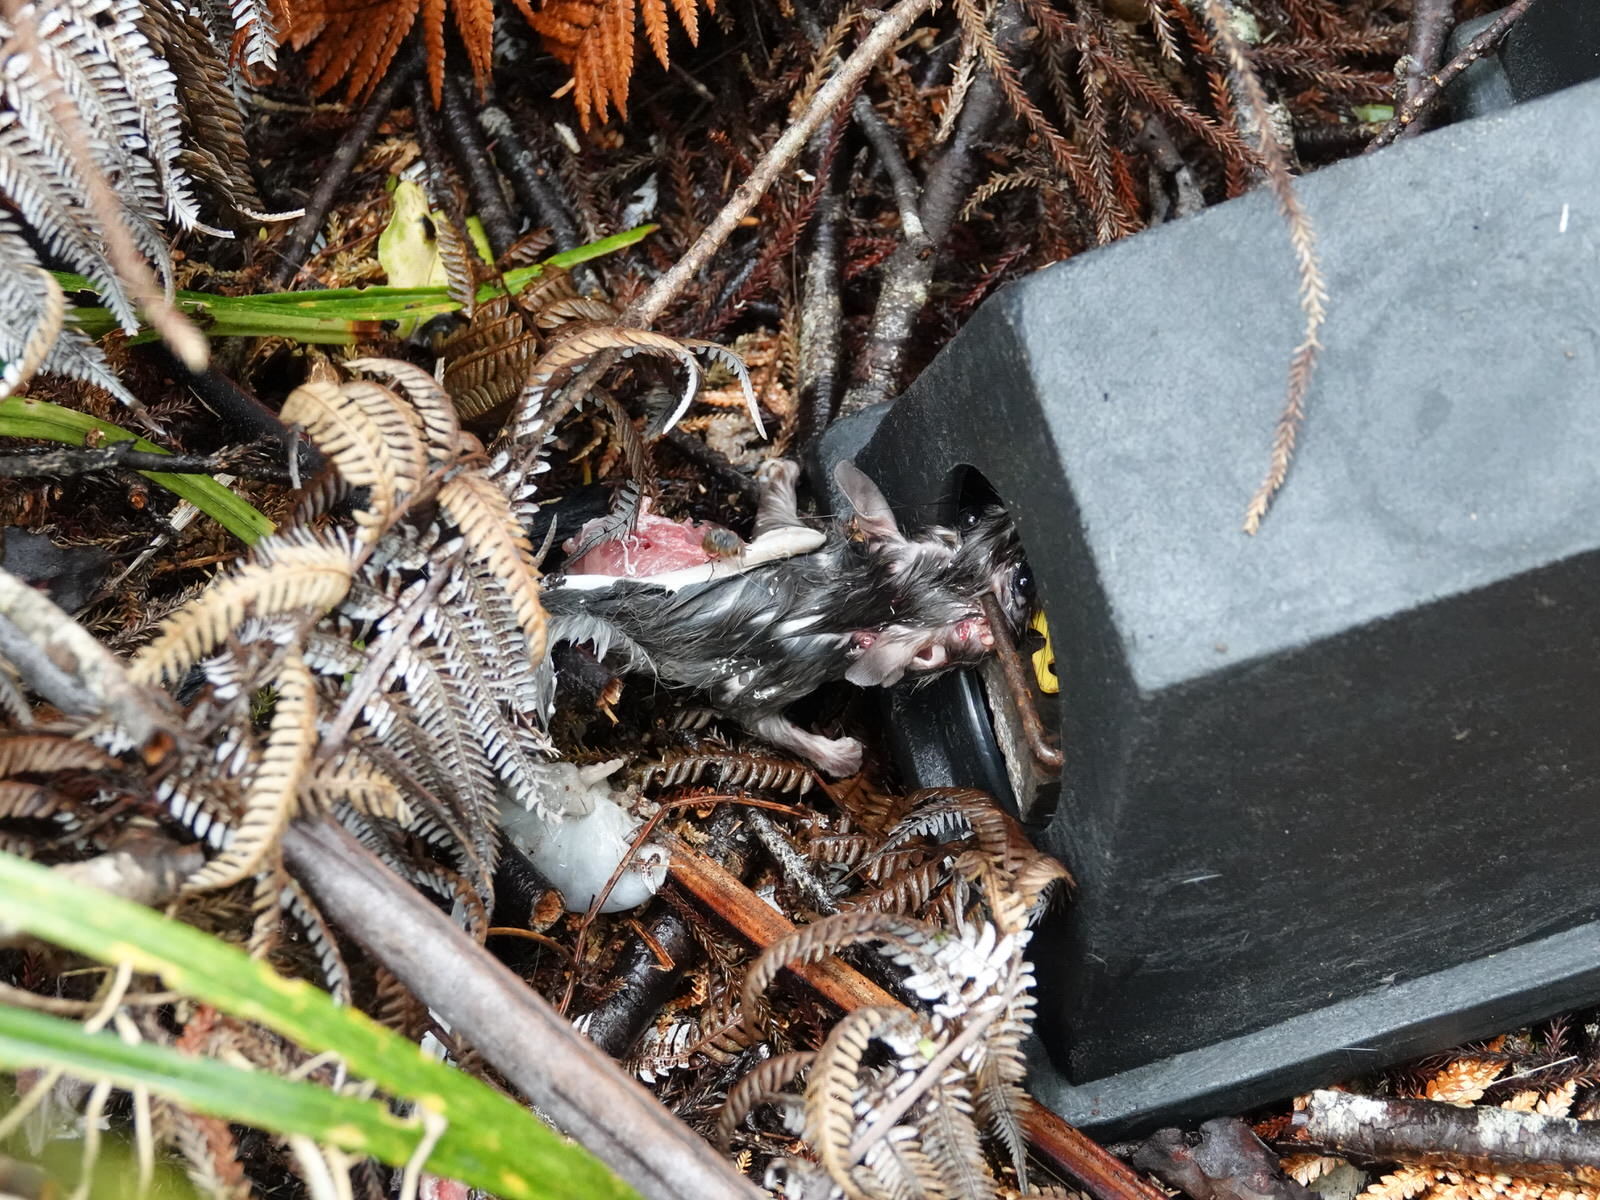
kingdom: Animalia
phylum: Chordata
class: Mammalia
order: Rodentia
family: Muridae
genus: Rattus
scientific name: Rattus rattus
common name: Black rat
